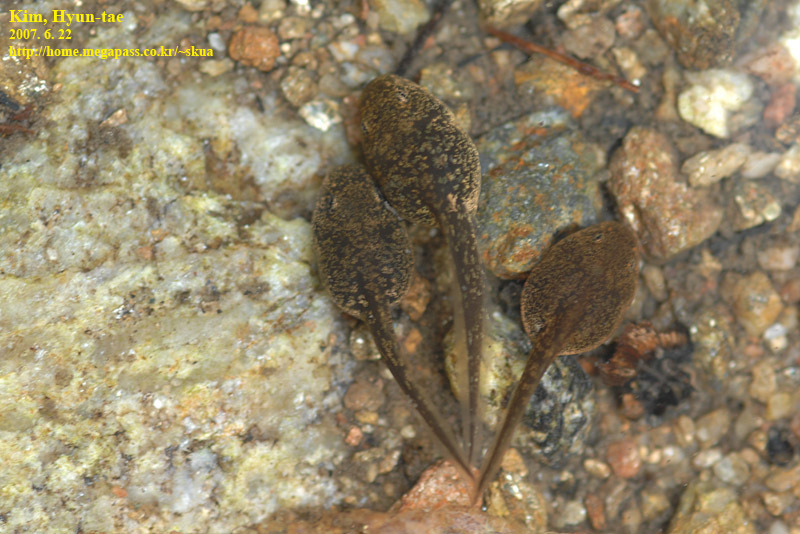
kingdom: Animalia
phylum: Chordata
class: Amphibia
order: Anura
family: Ranidae
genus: Rana
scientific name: Rana huanrenensis
